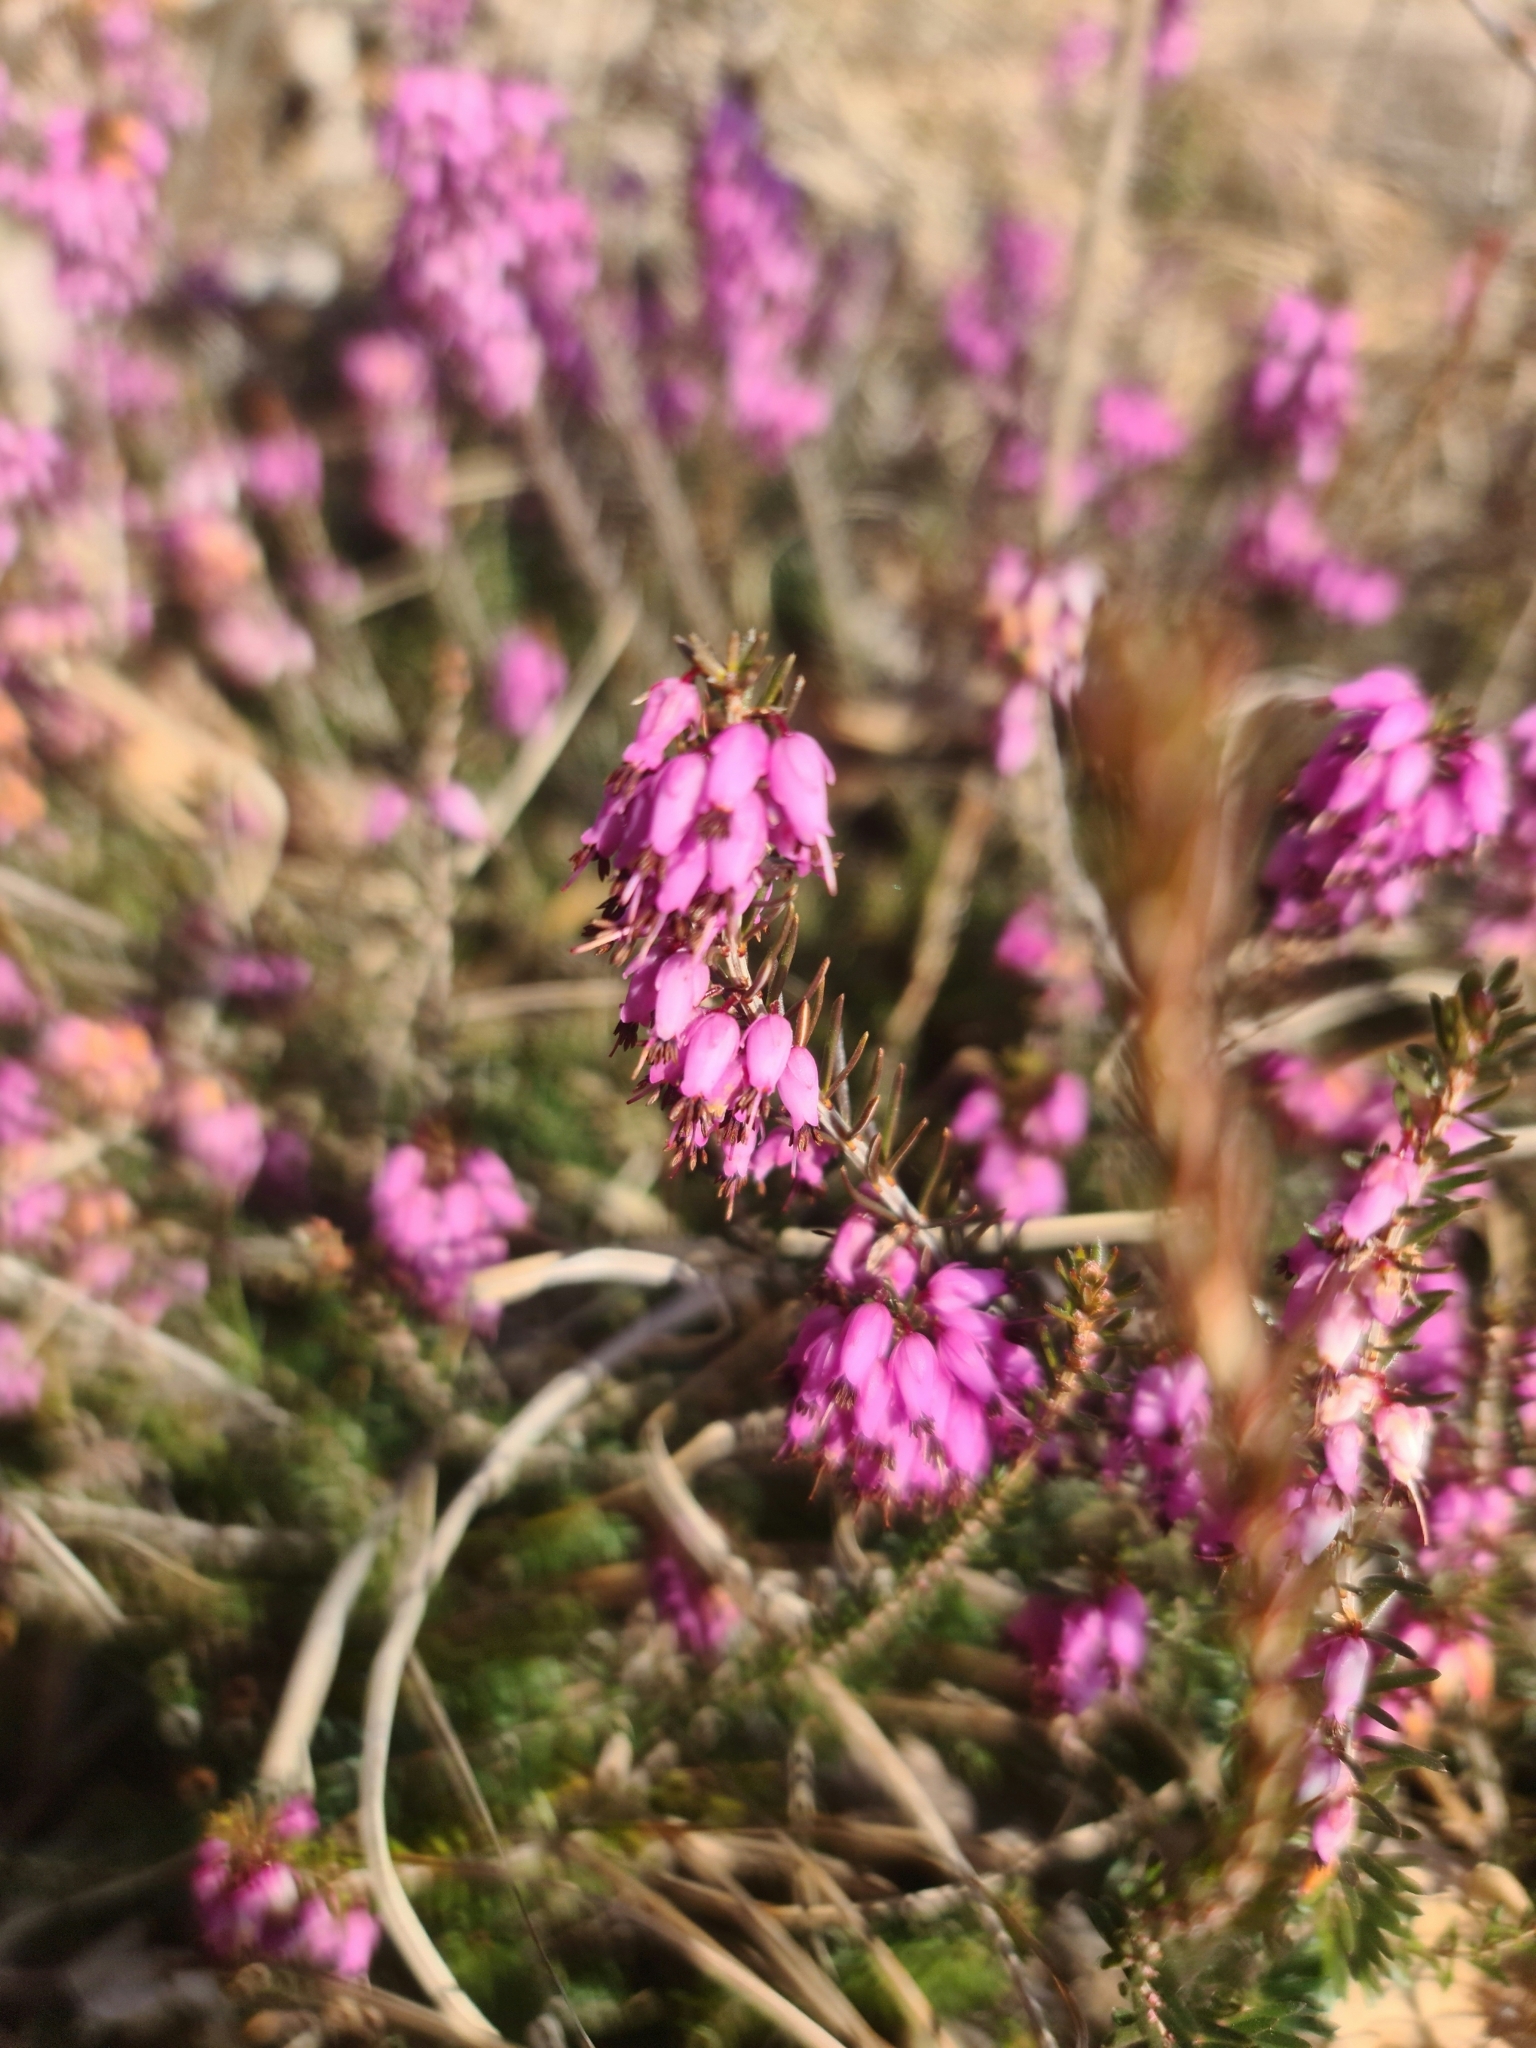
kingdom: Plantae
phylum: Tracheophyta
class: Magnoliopsida
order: Ericales
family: Ericaceae
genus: Erica
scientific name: Erica carnea
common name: Winter heath
